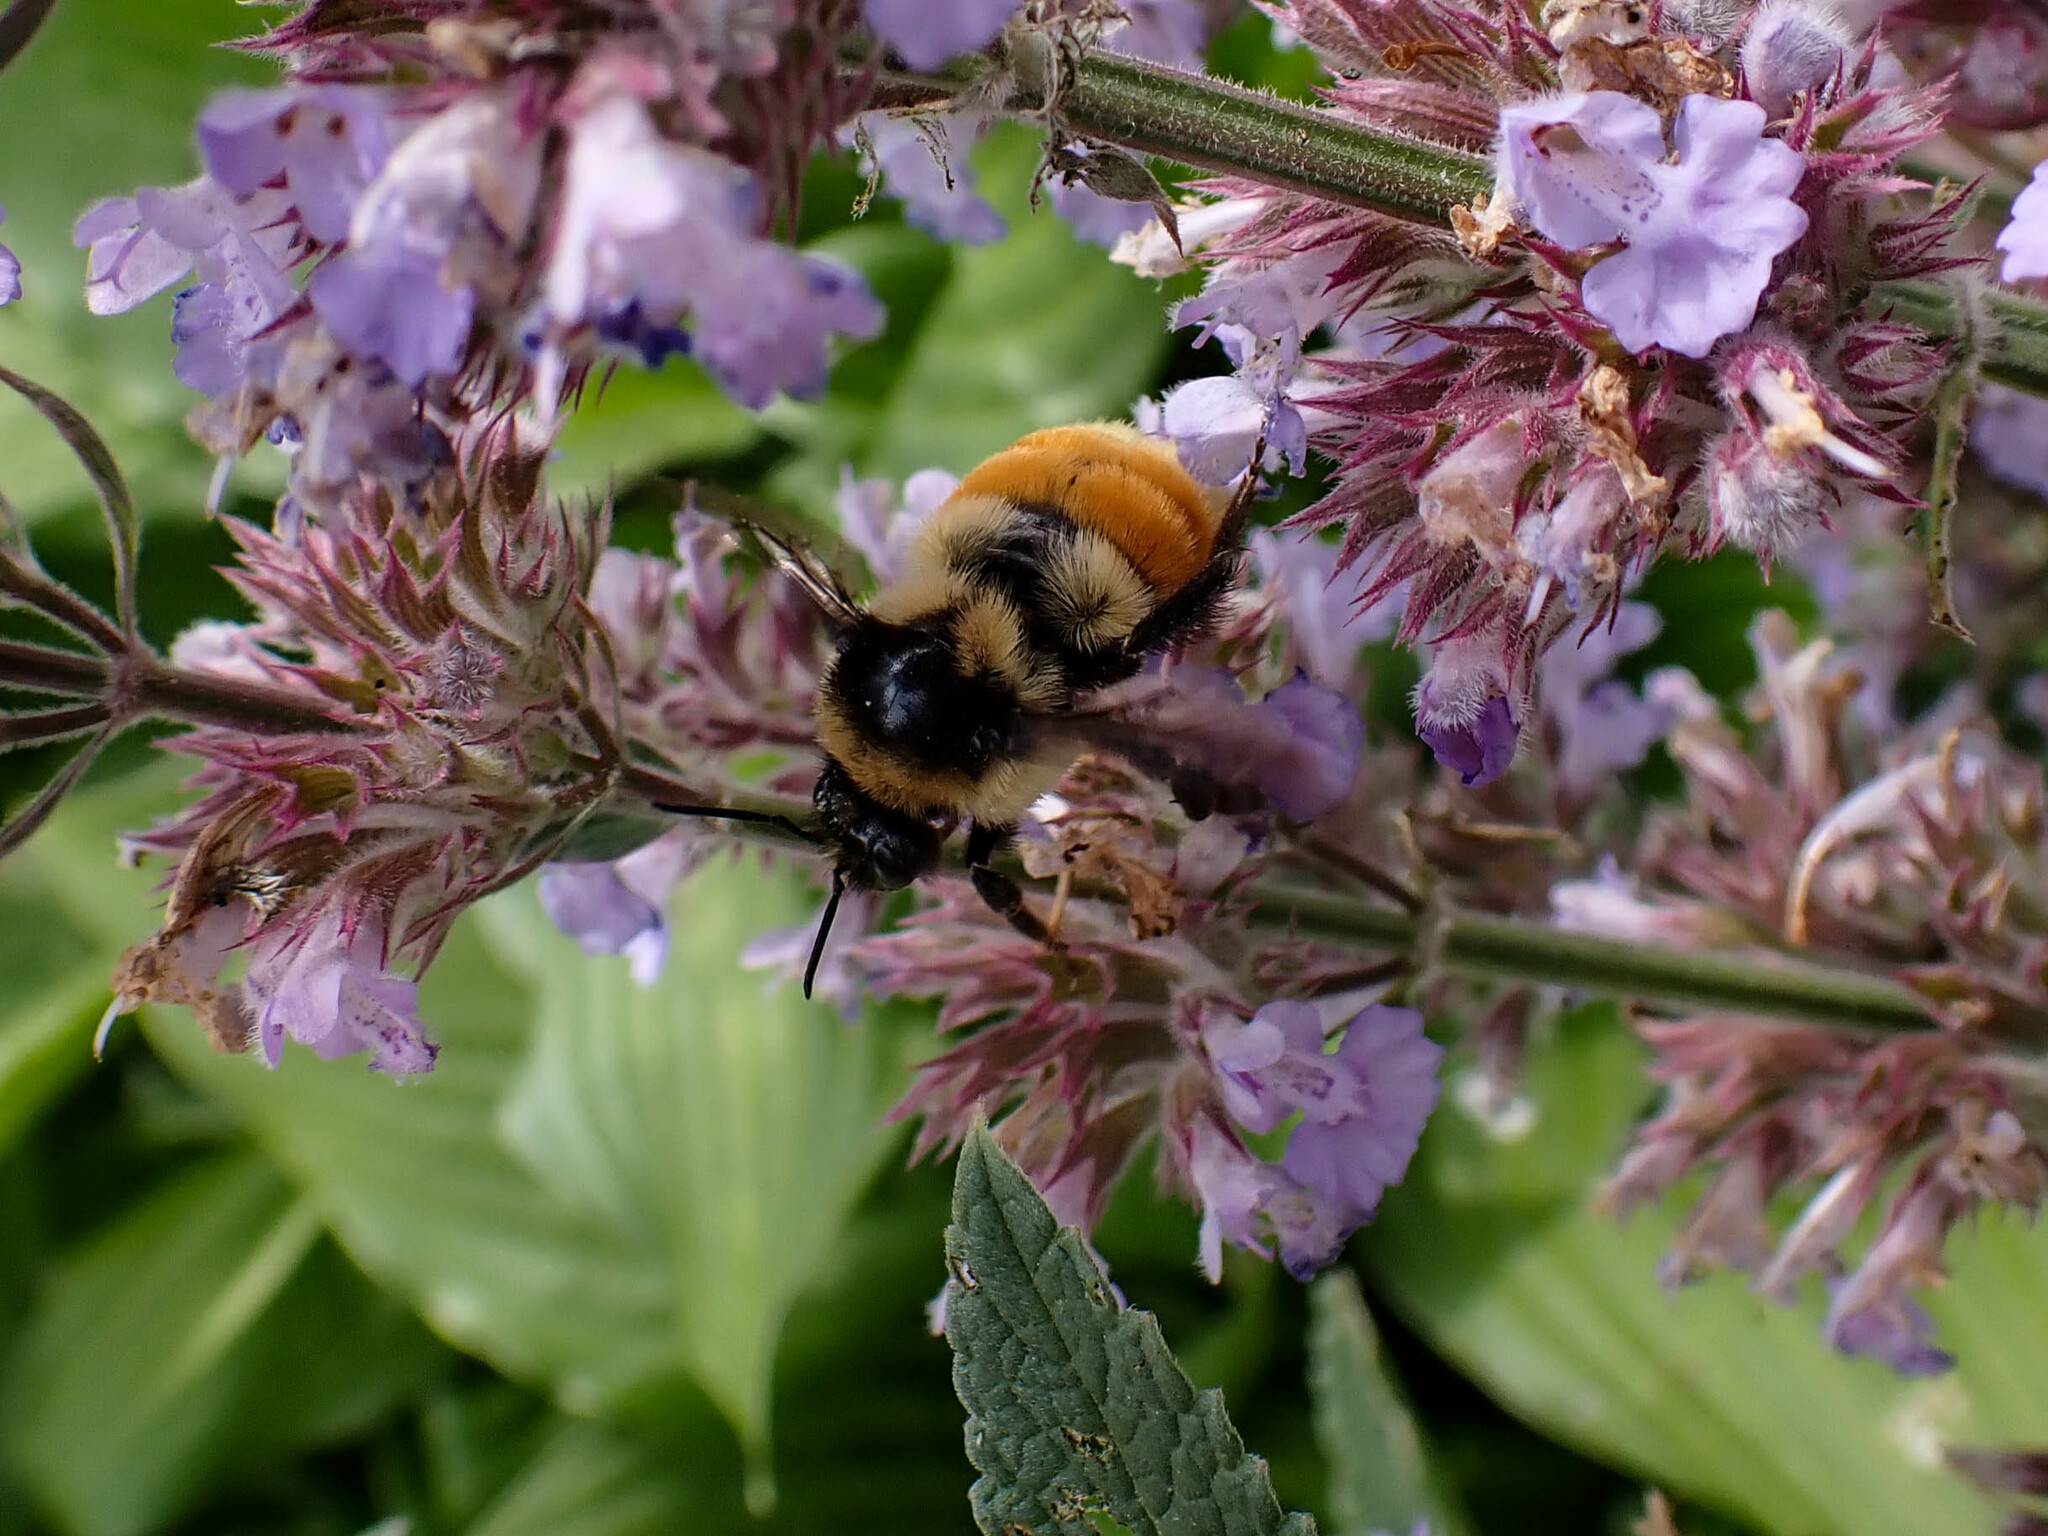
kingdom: Animalia
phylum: Arthropoda
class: Insecta
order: Hymenoptera
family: Apidae
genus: Bombus
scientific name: Bombus ternarius
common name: Tri-colored bumble bee
